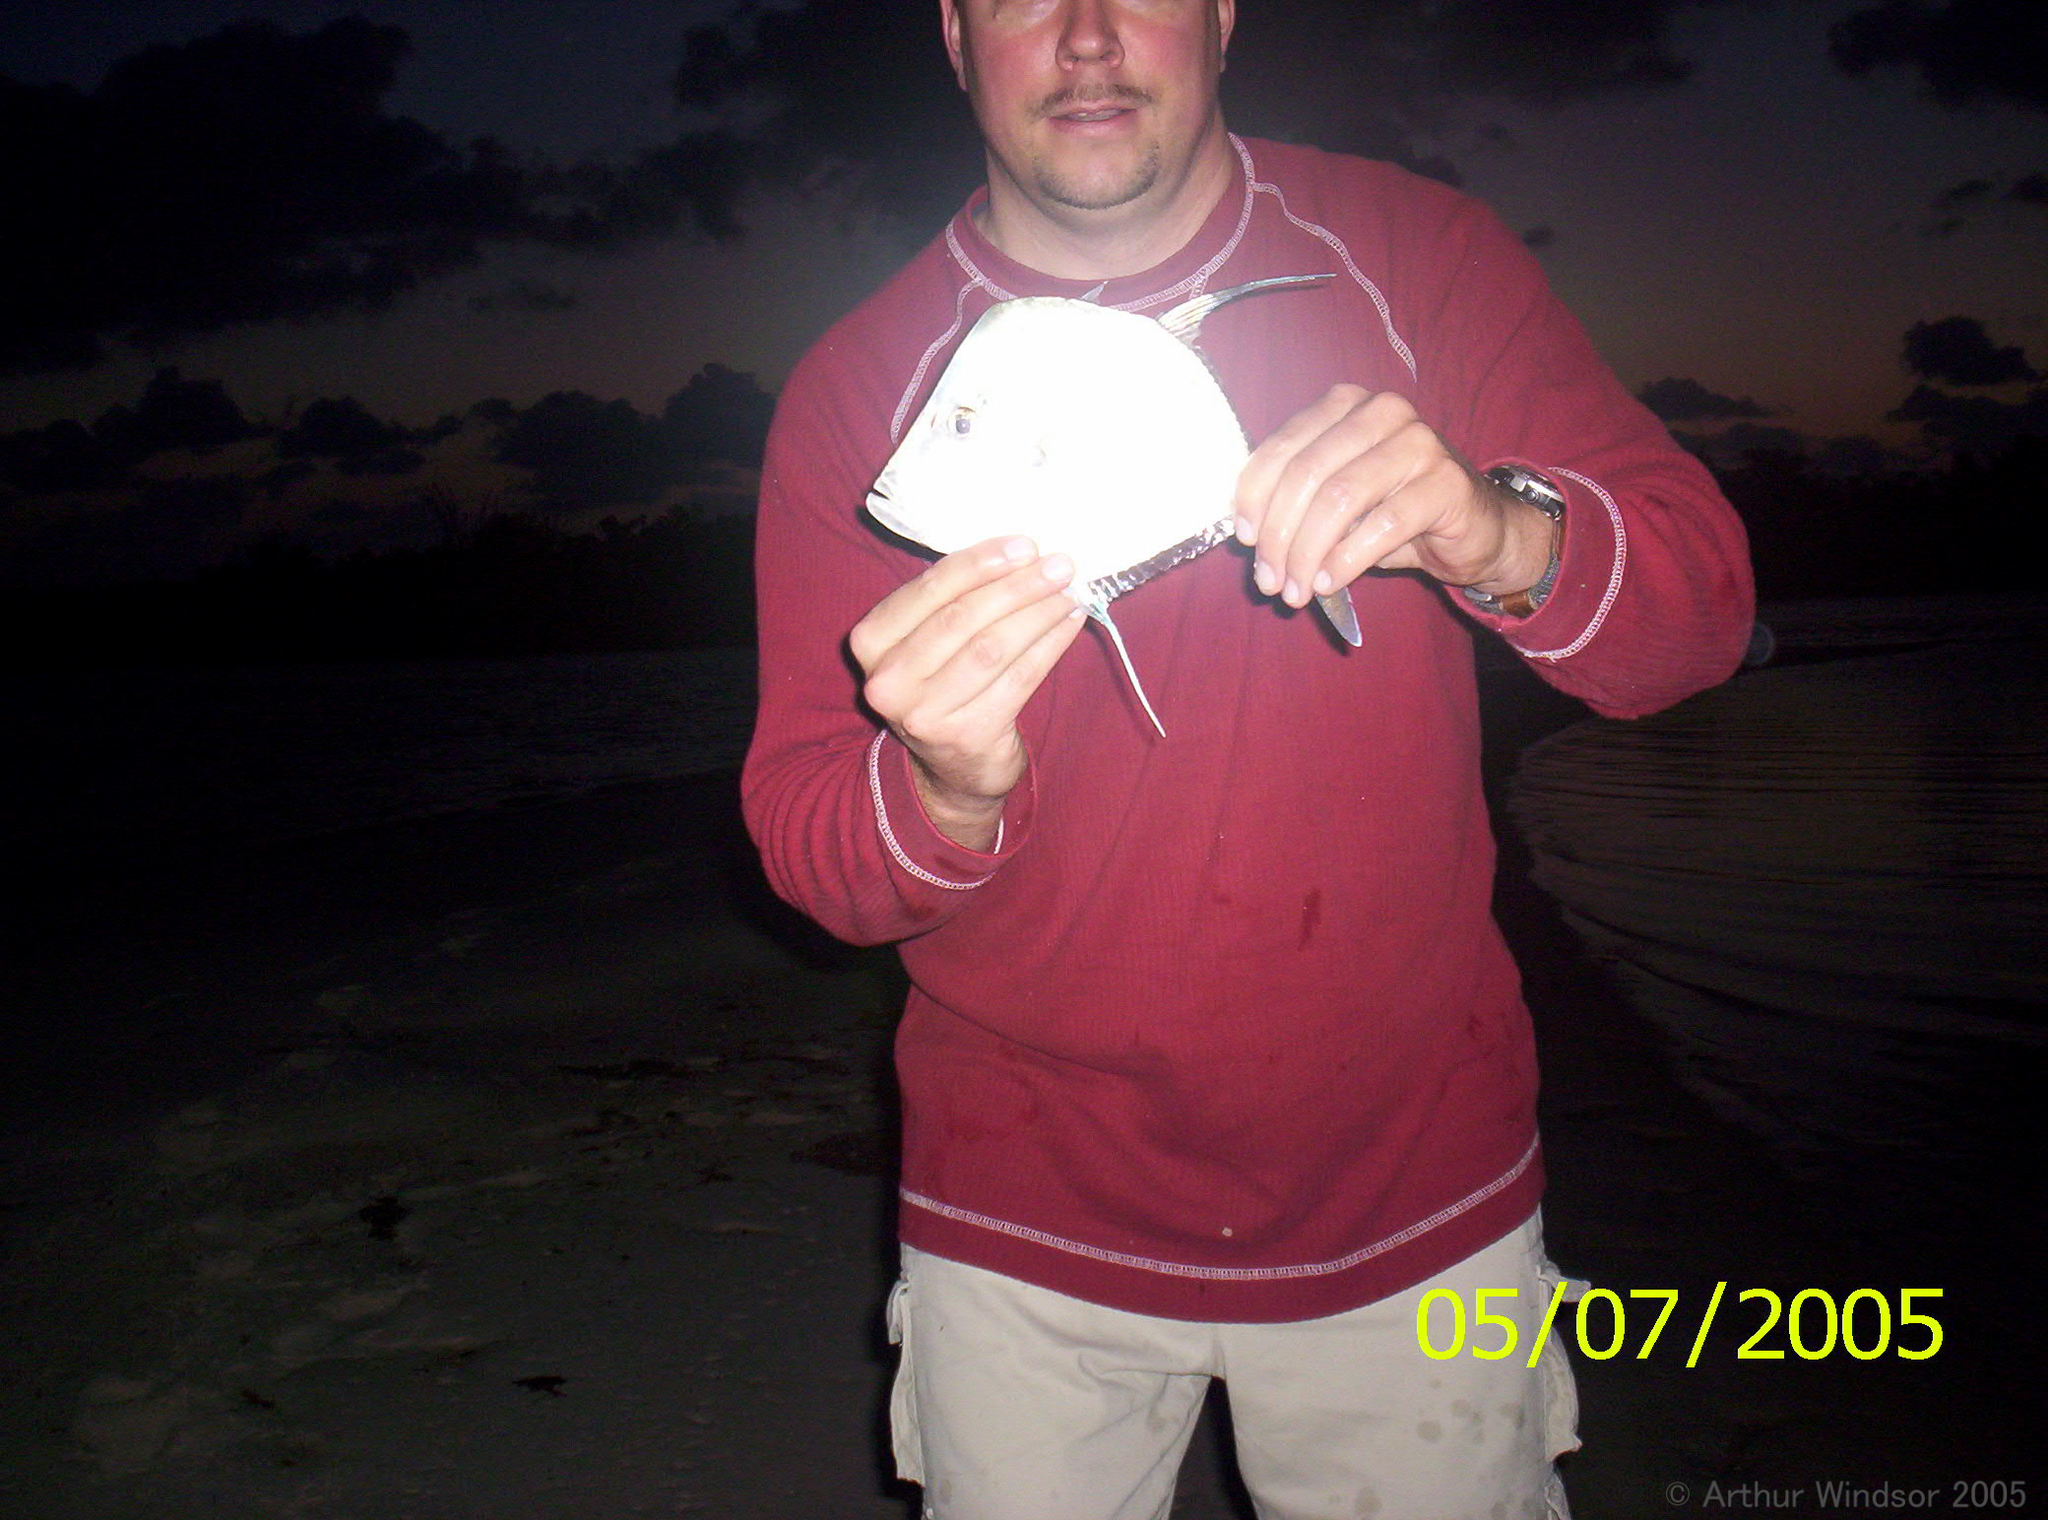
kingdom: Animalia
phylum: Chordata
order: Perciformes
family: Carangidae
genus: Selene
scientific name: Selene vomer
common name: Lookdown
